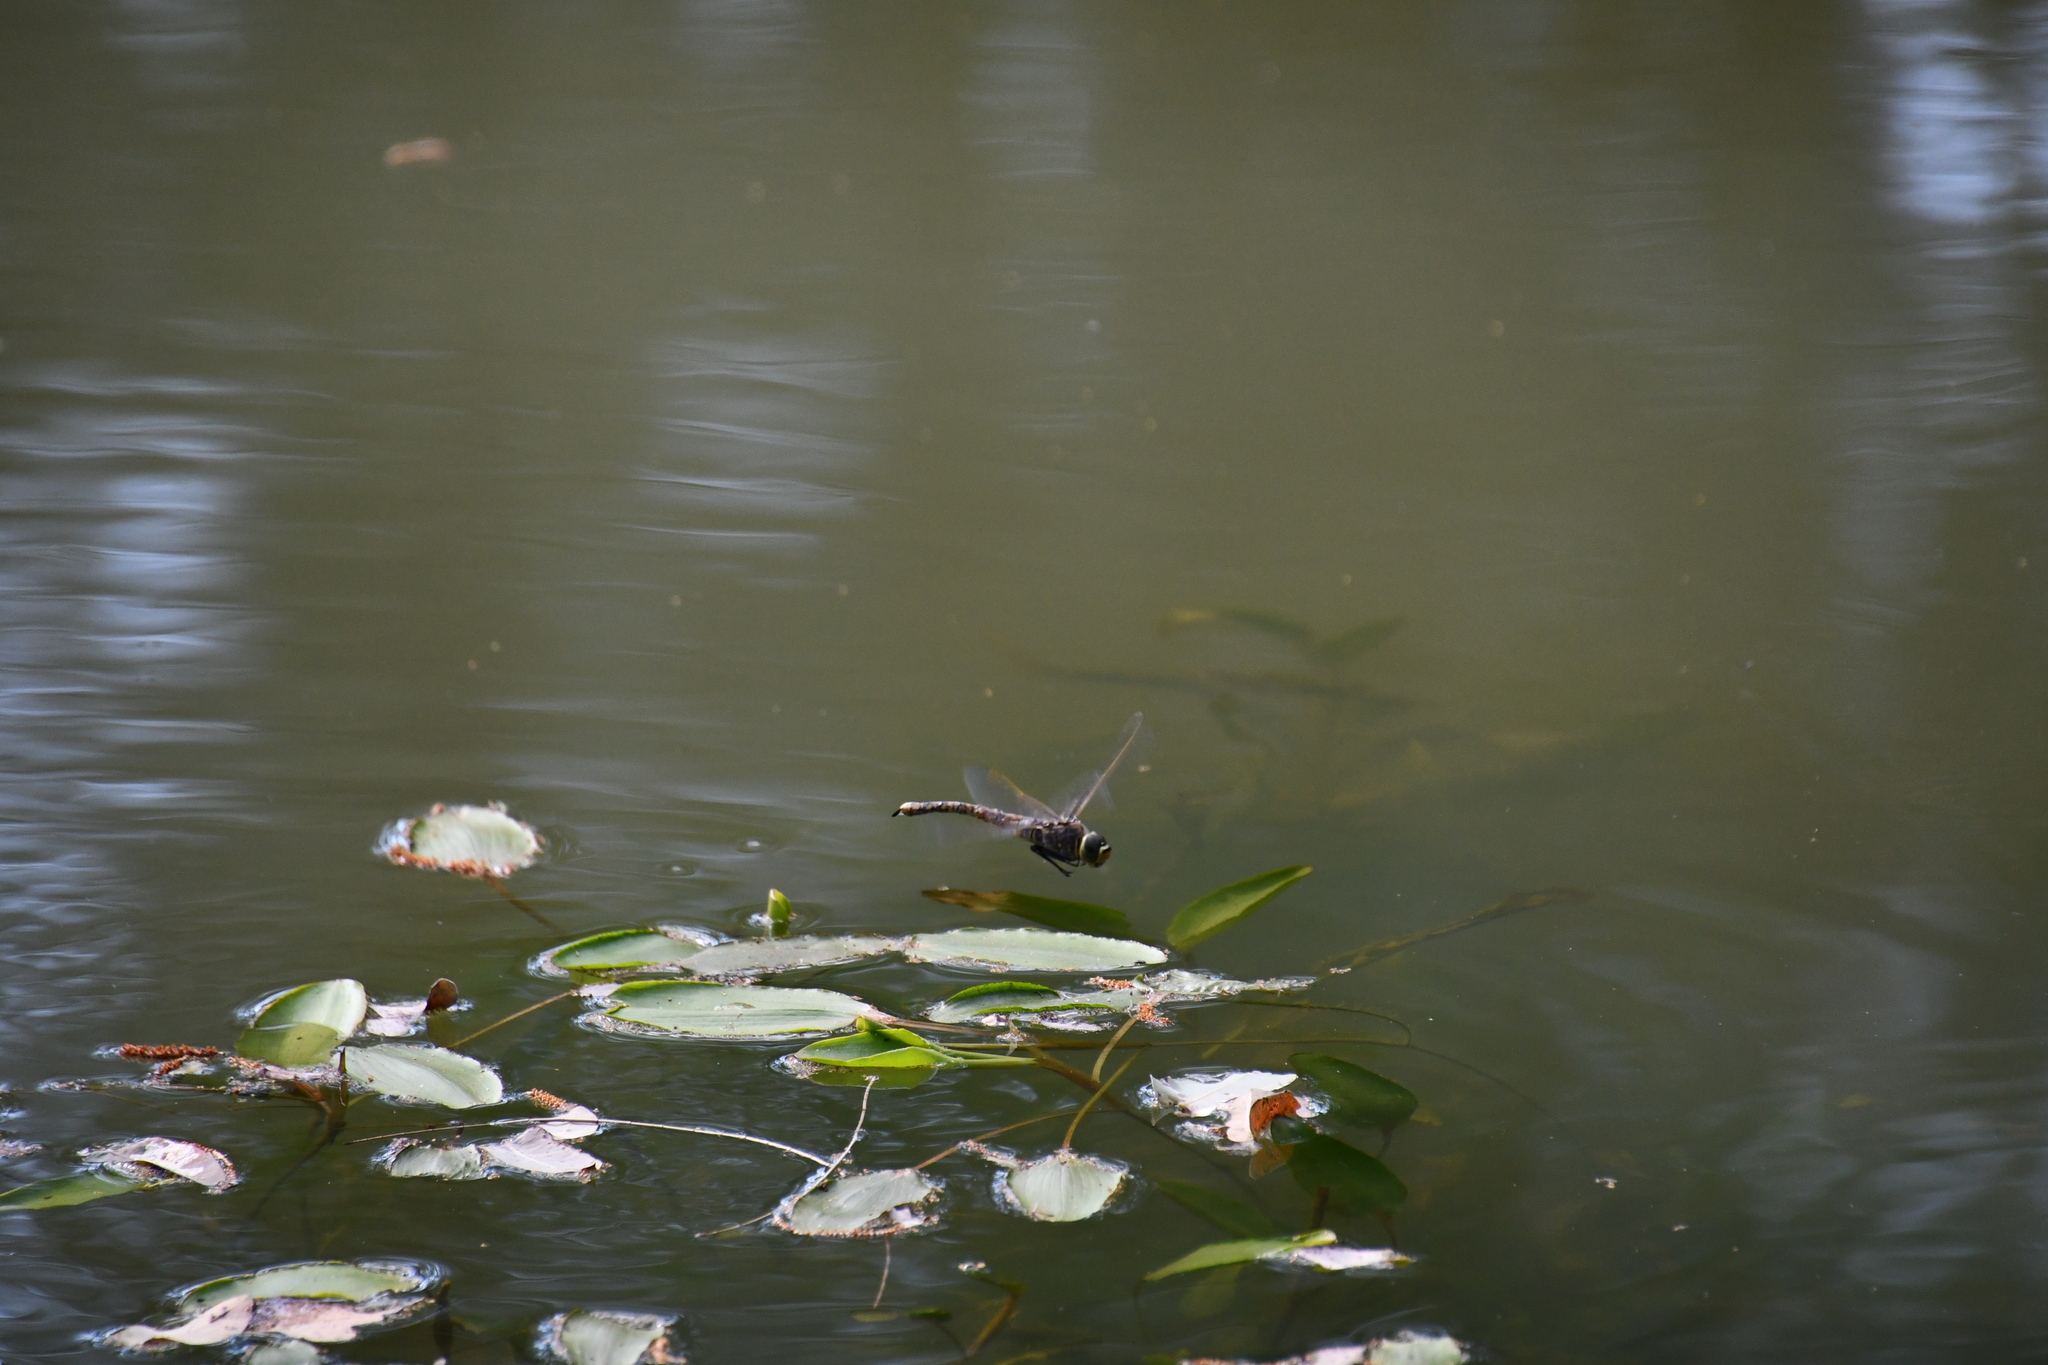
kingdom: Animalia
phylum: Arthropoda
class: Insecta
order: Odonata
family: Aeshnidae
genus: Anax
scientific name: Anax papuensis
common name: Australian emperor
